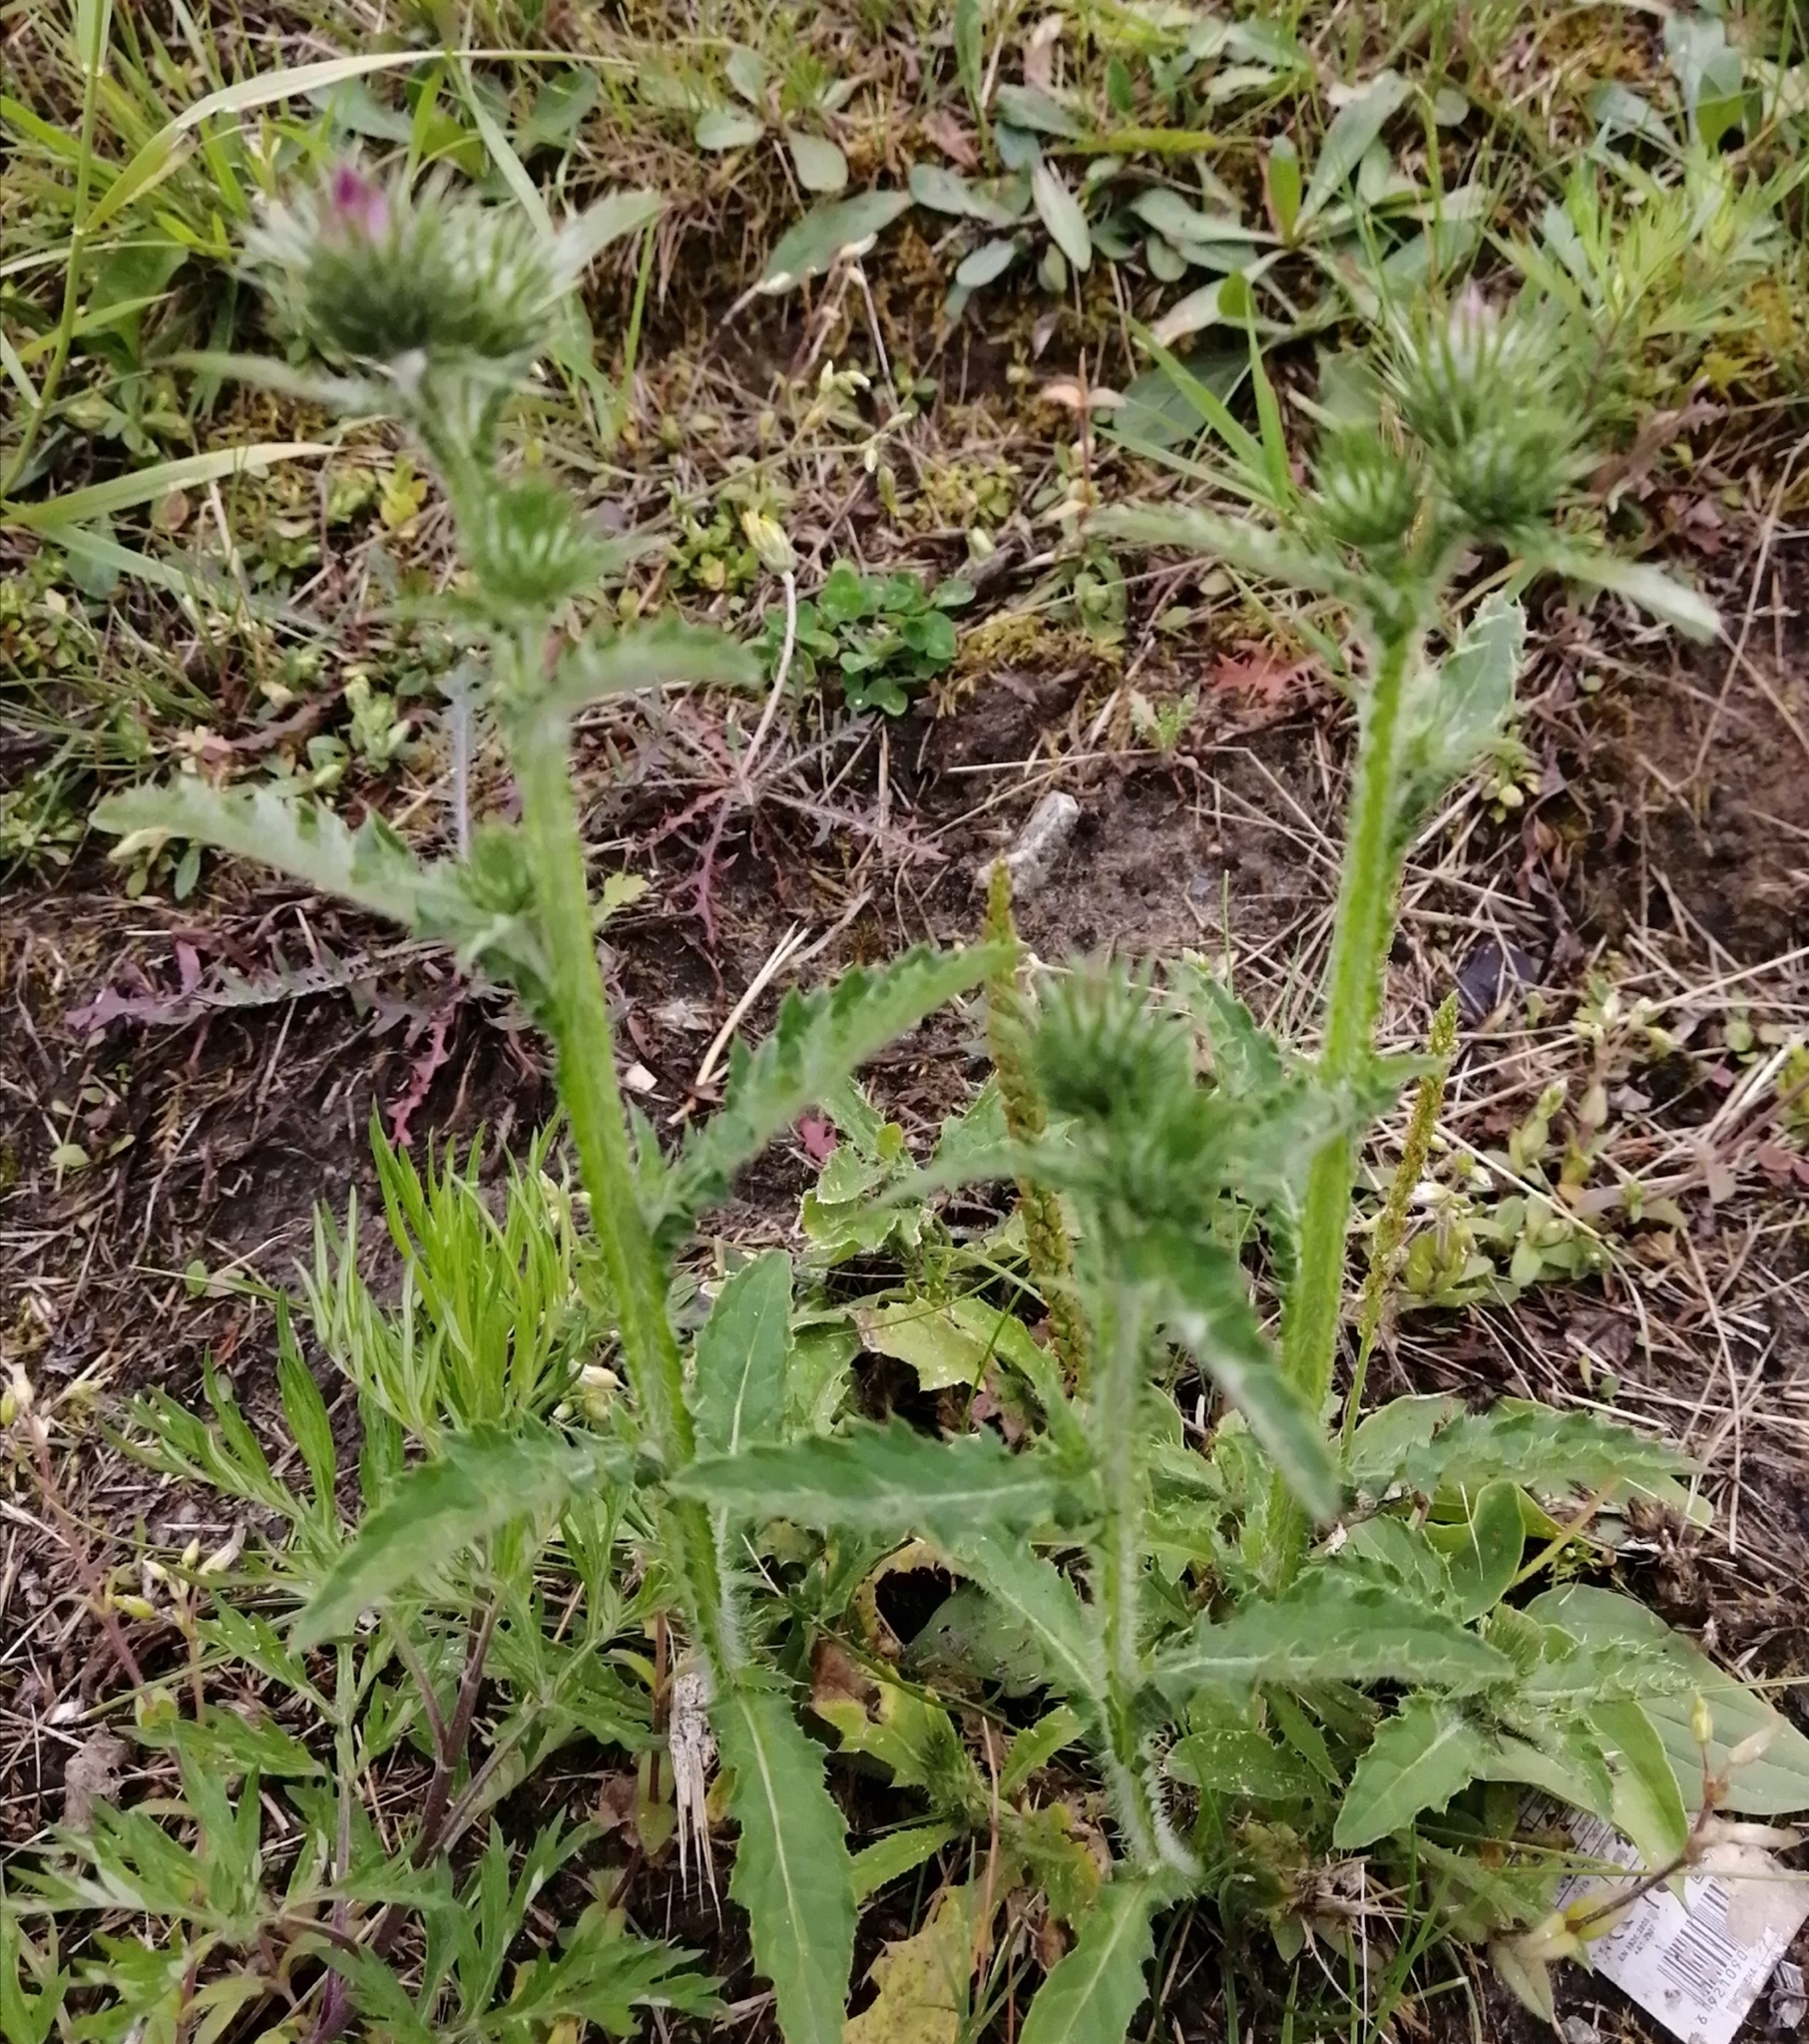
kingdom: Plantae
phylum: Tracheophyta
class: Magnoliopsida
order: Asterales
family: Asteraceae
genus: Carduus
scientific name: Carduus crispus
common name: Welted thistle
